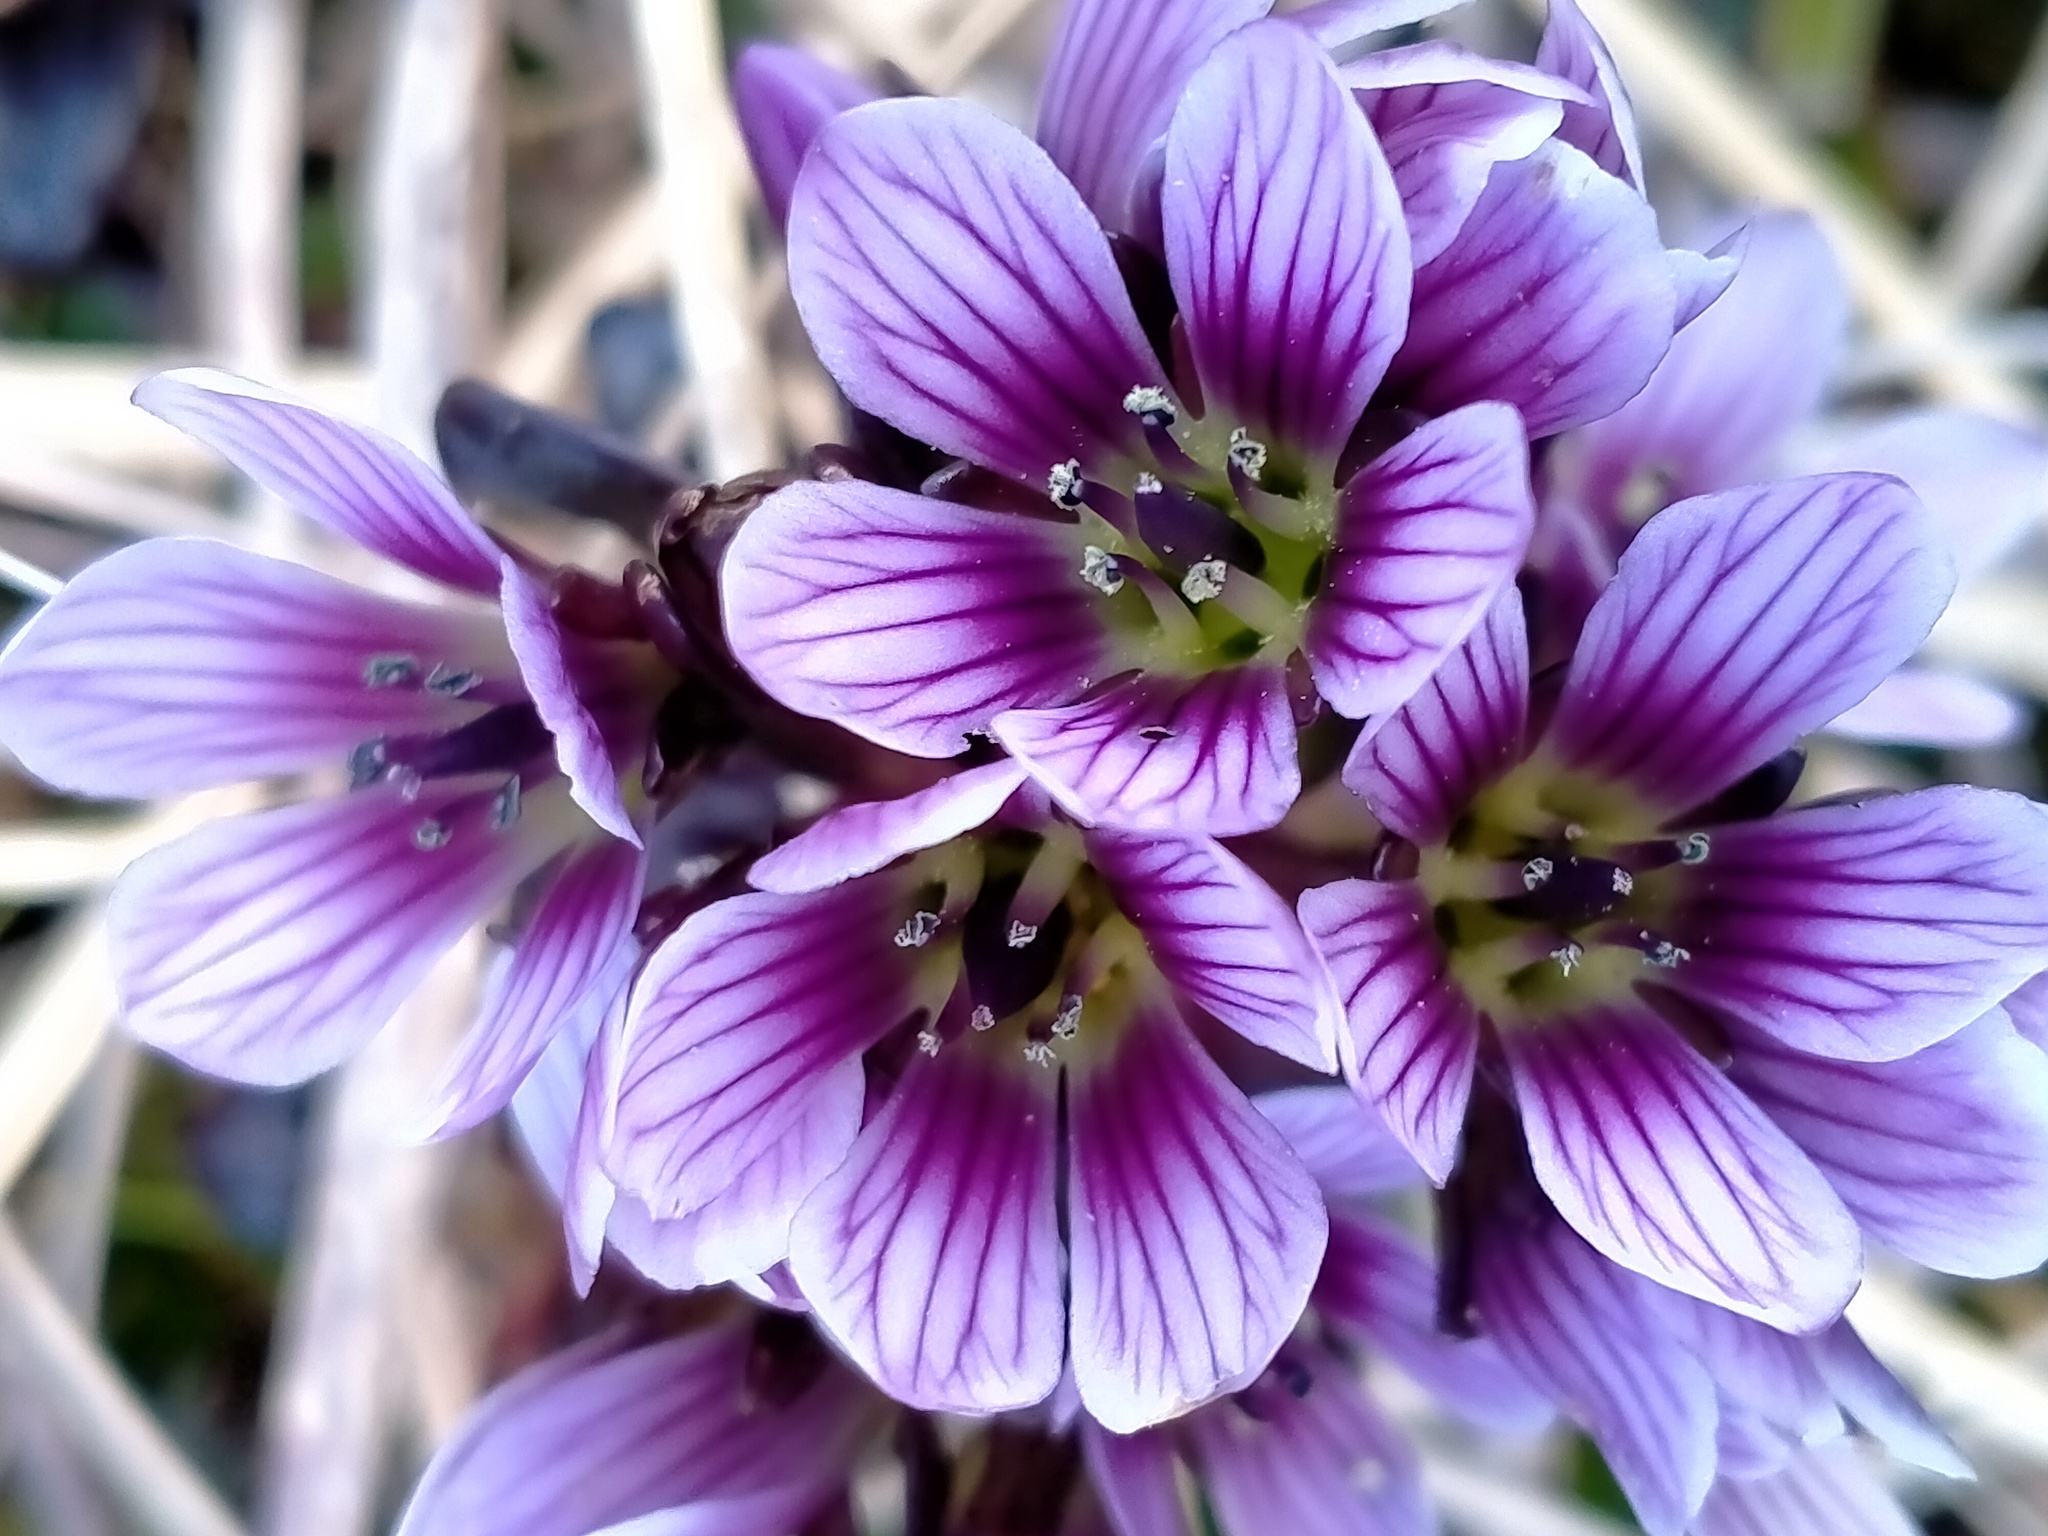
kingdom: Plantae
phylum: Tracheophyta
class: Magnoliopsida
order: Gentianales
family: Gentianaceae
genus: Gentianella
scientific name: Gentianella concinna
